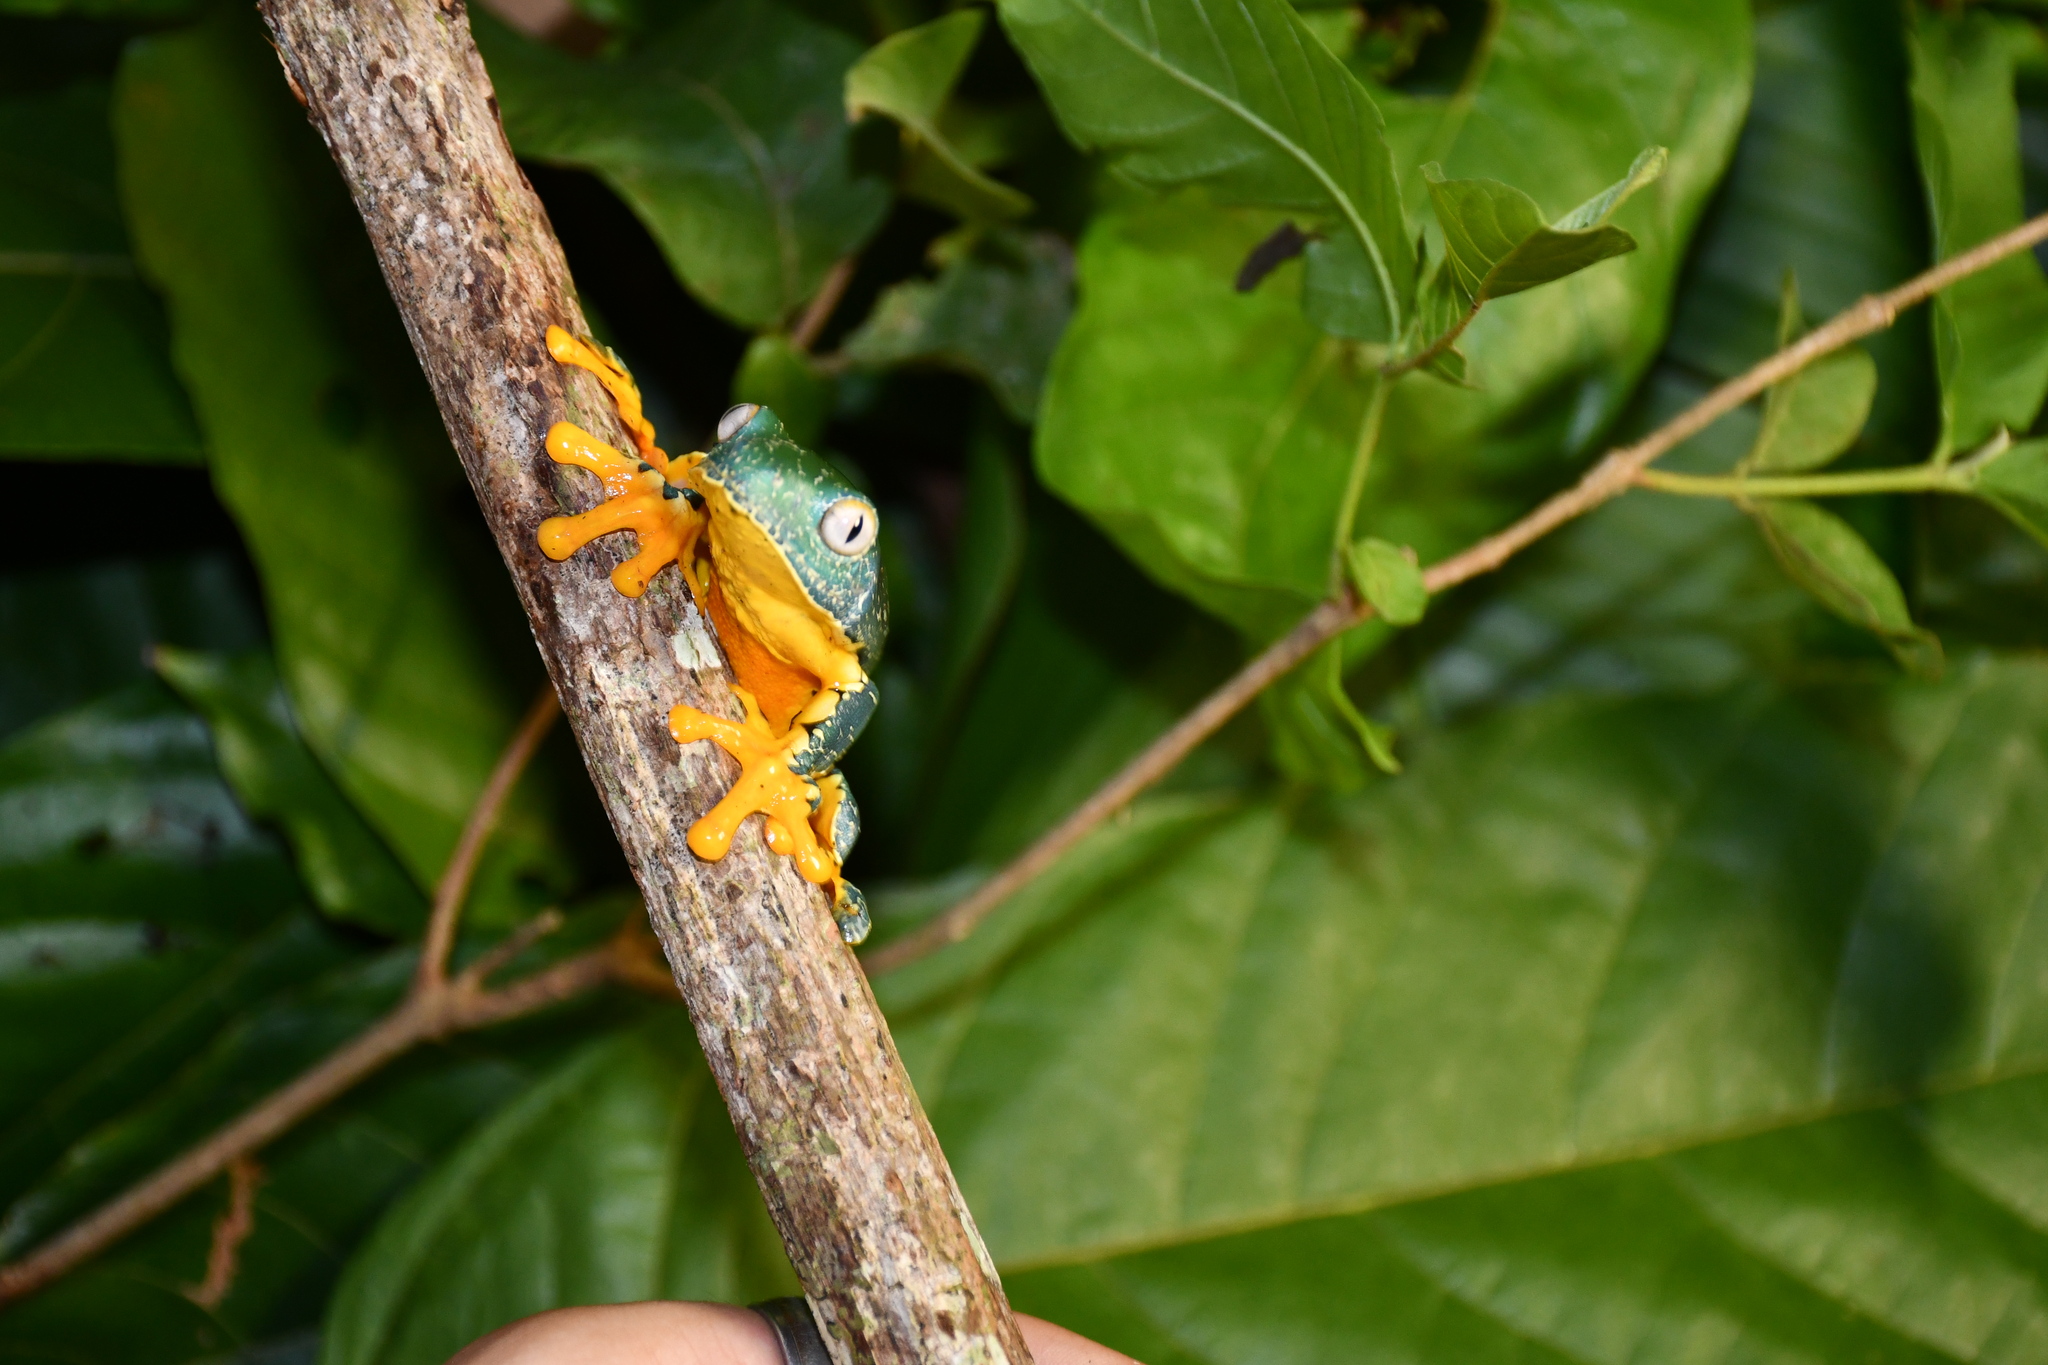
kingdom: Animalia
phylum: Chordata
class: Amphibia
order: Anura
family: Phyllomedusidae
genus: Cruziohyla
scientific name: Cruziohyla craspedopus
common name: Fringed leaf frog
